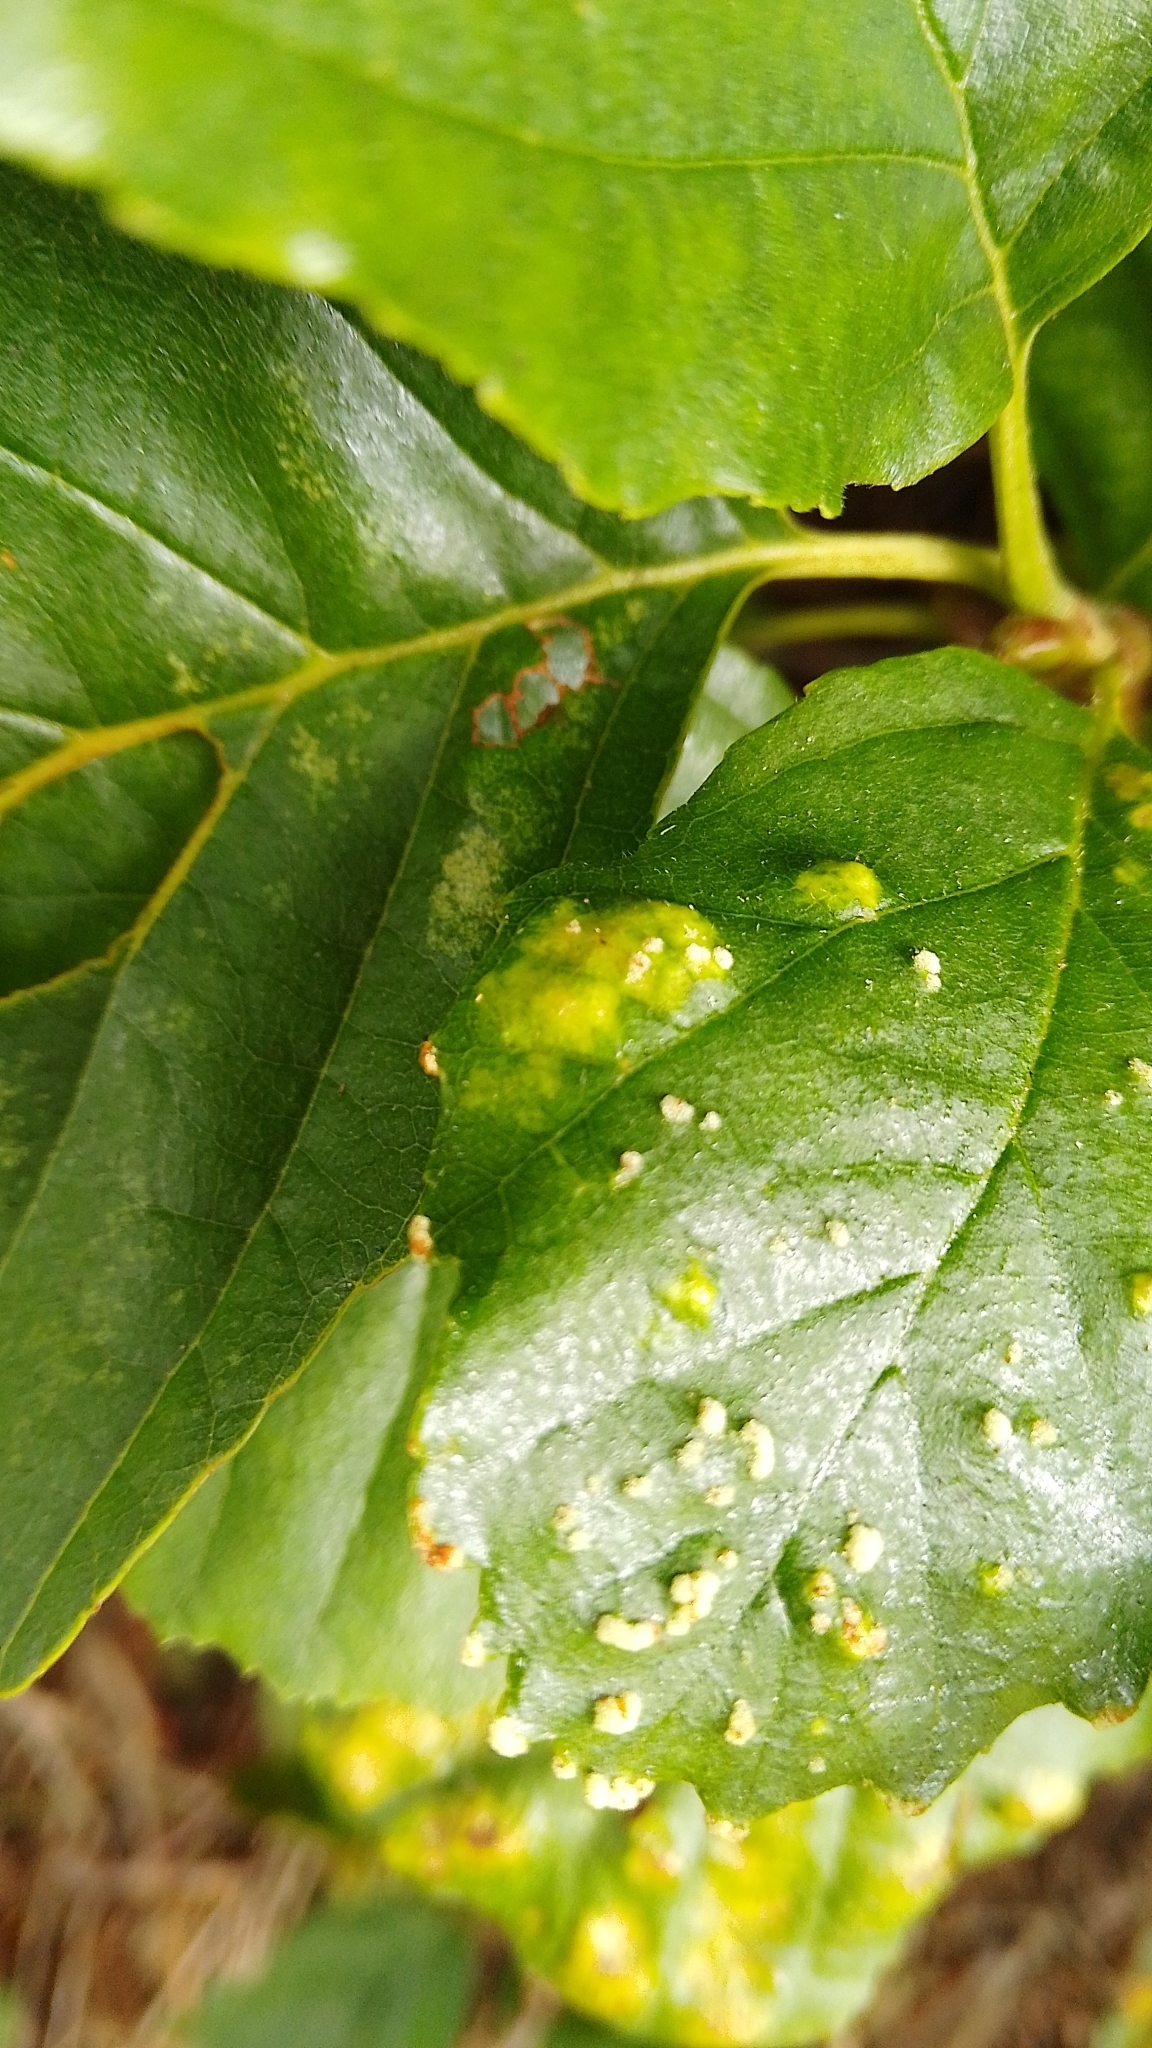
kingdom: Animalia
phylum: Arthropoda
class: Arachnida
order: Trombidiformes
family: Eriophyidae
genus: Acalitus
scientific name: Acalitus brevitarsus
